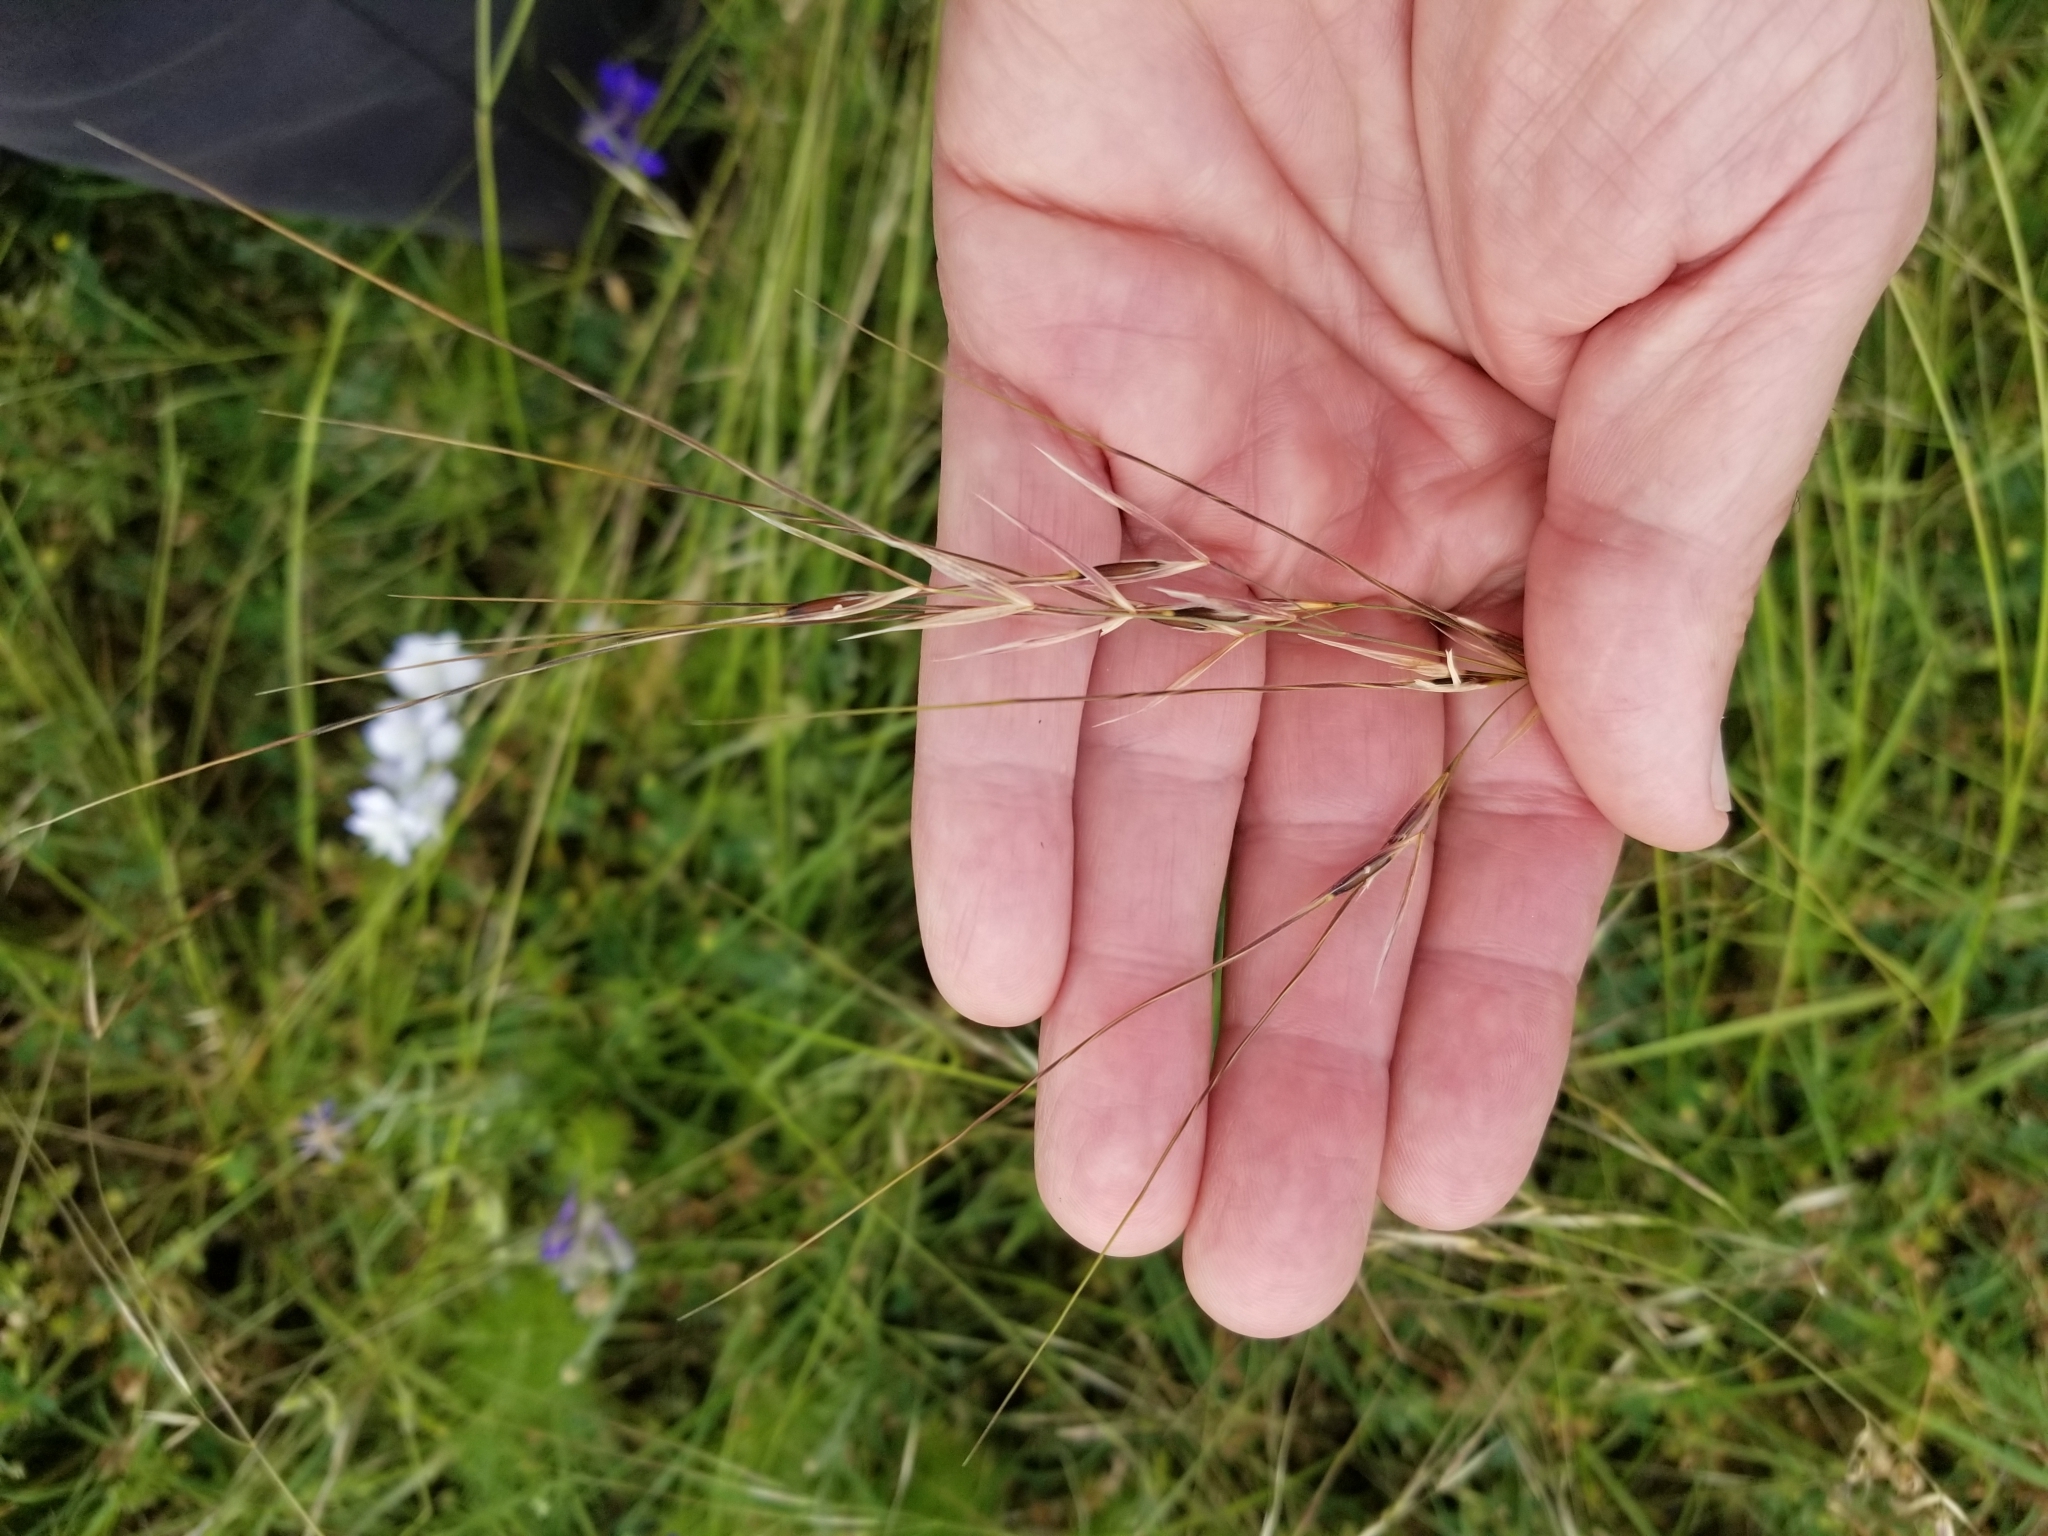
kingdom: Plantae
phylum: Tracheophyta
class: Liliopsida
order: Poales
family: Poaceae
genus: Nassella
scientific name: Nassella leucotricha
